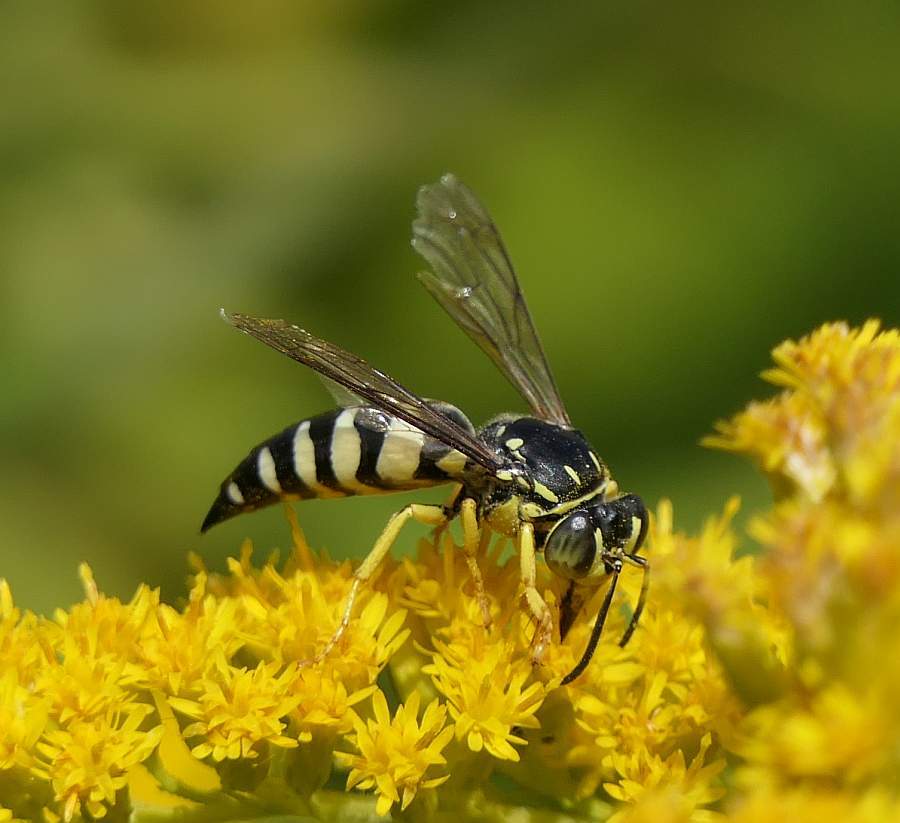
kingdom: Animalia
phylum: Arthropoda
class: Insecta
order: Hymenoptera
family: Crabronidae
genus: Bicyrtes
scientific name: Bicyrtes quadrifasciatus
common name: Four-banded stink bug hunter wasp
